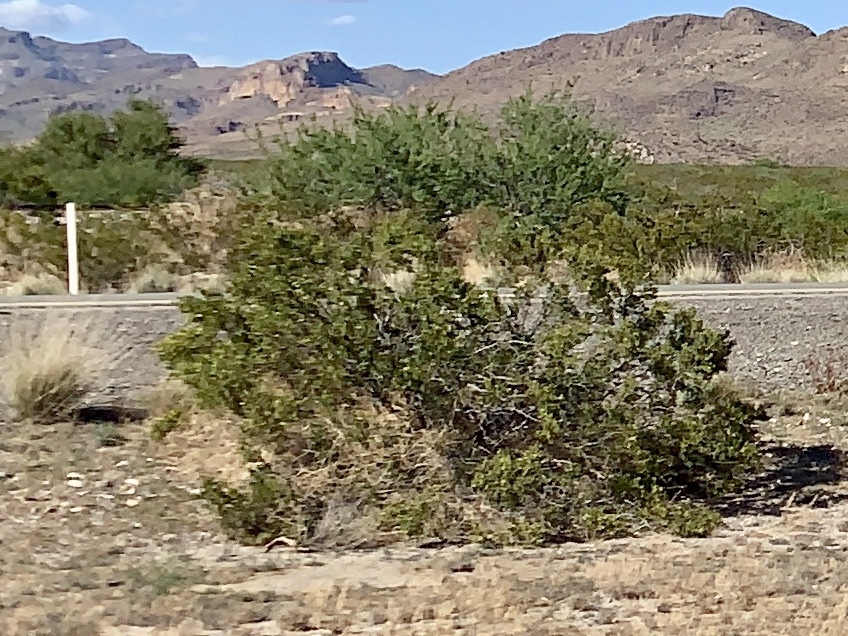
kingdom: Plantae
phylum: Tracheophyta
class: Magnoliopsida
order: Zygophyllales
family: Zygophyllaceae
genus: Larrea
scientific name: Larrea tridentata
